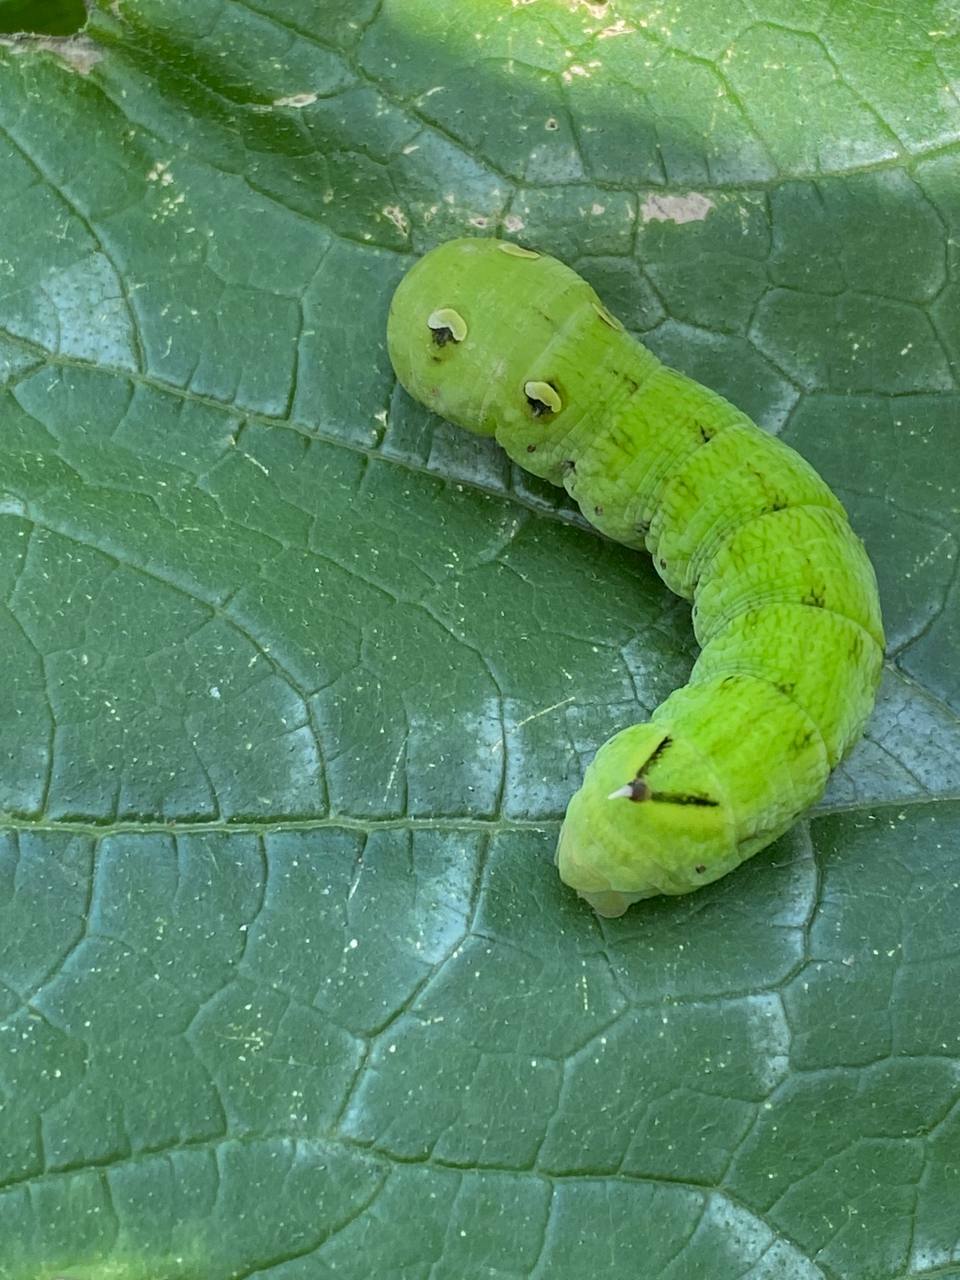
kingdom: Animalia
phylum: Arthropoda
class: Insecta
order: Lepidoptera
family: Sphingidae
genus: Deilephila
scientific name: Deilephila elpenor
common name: Elephant hawk-moth
